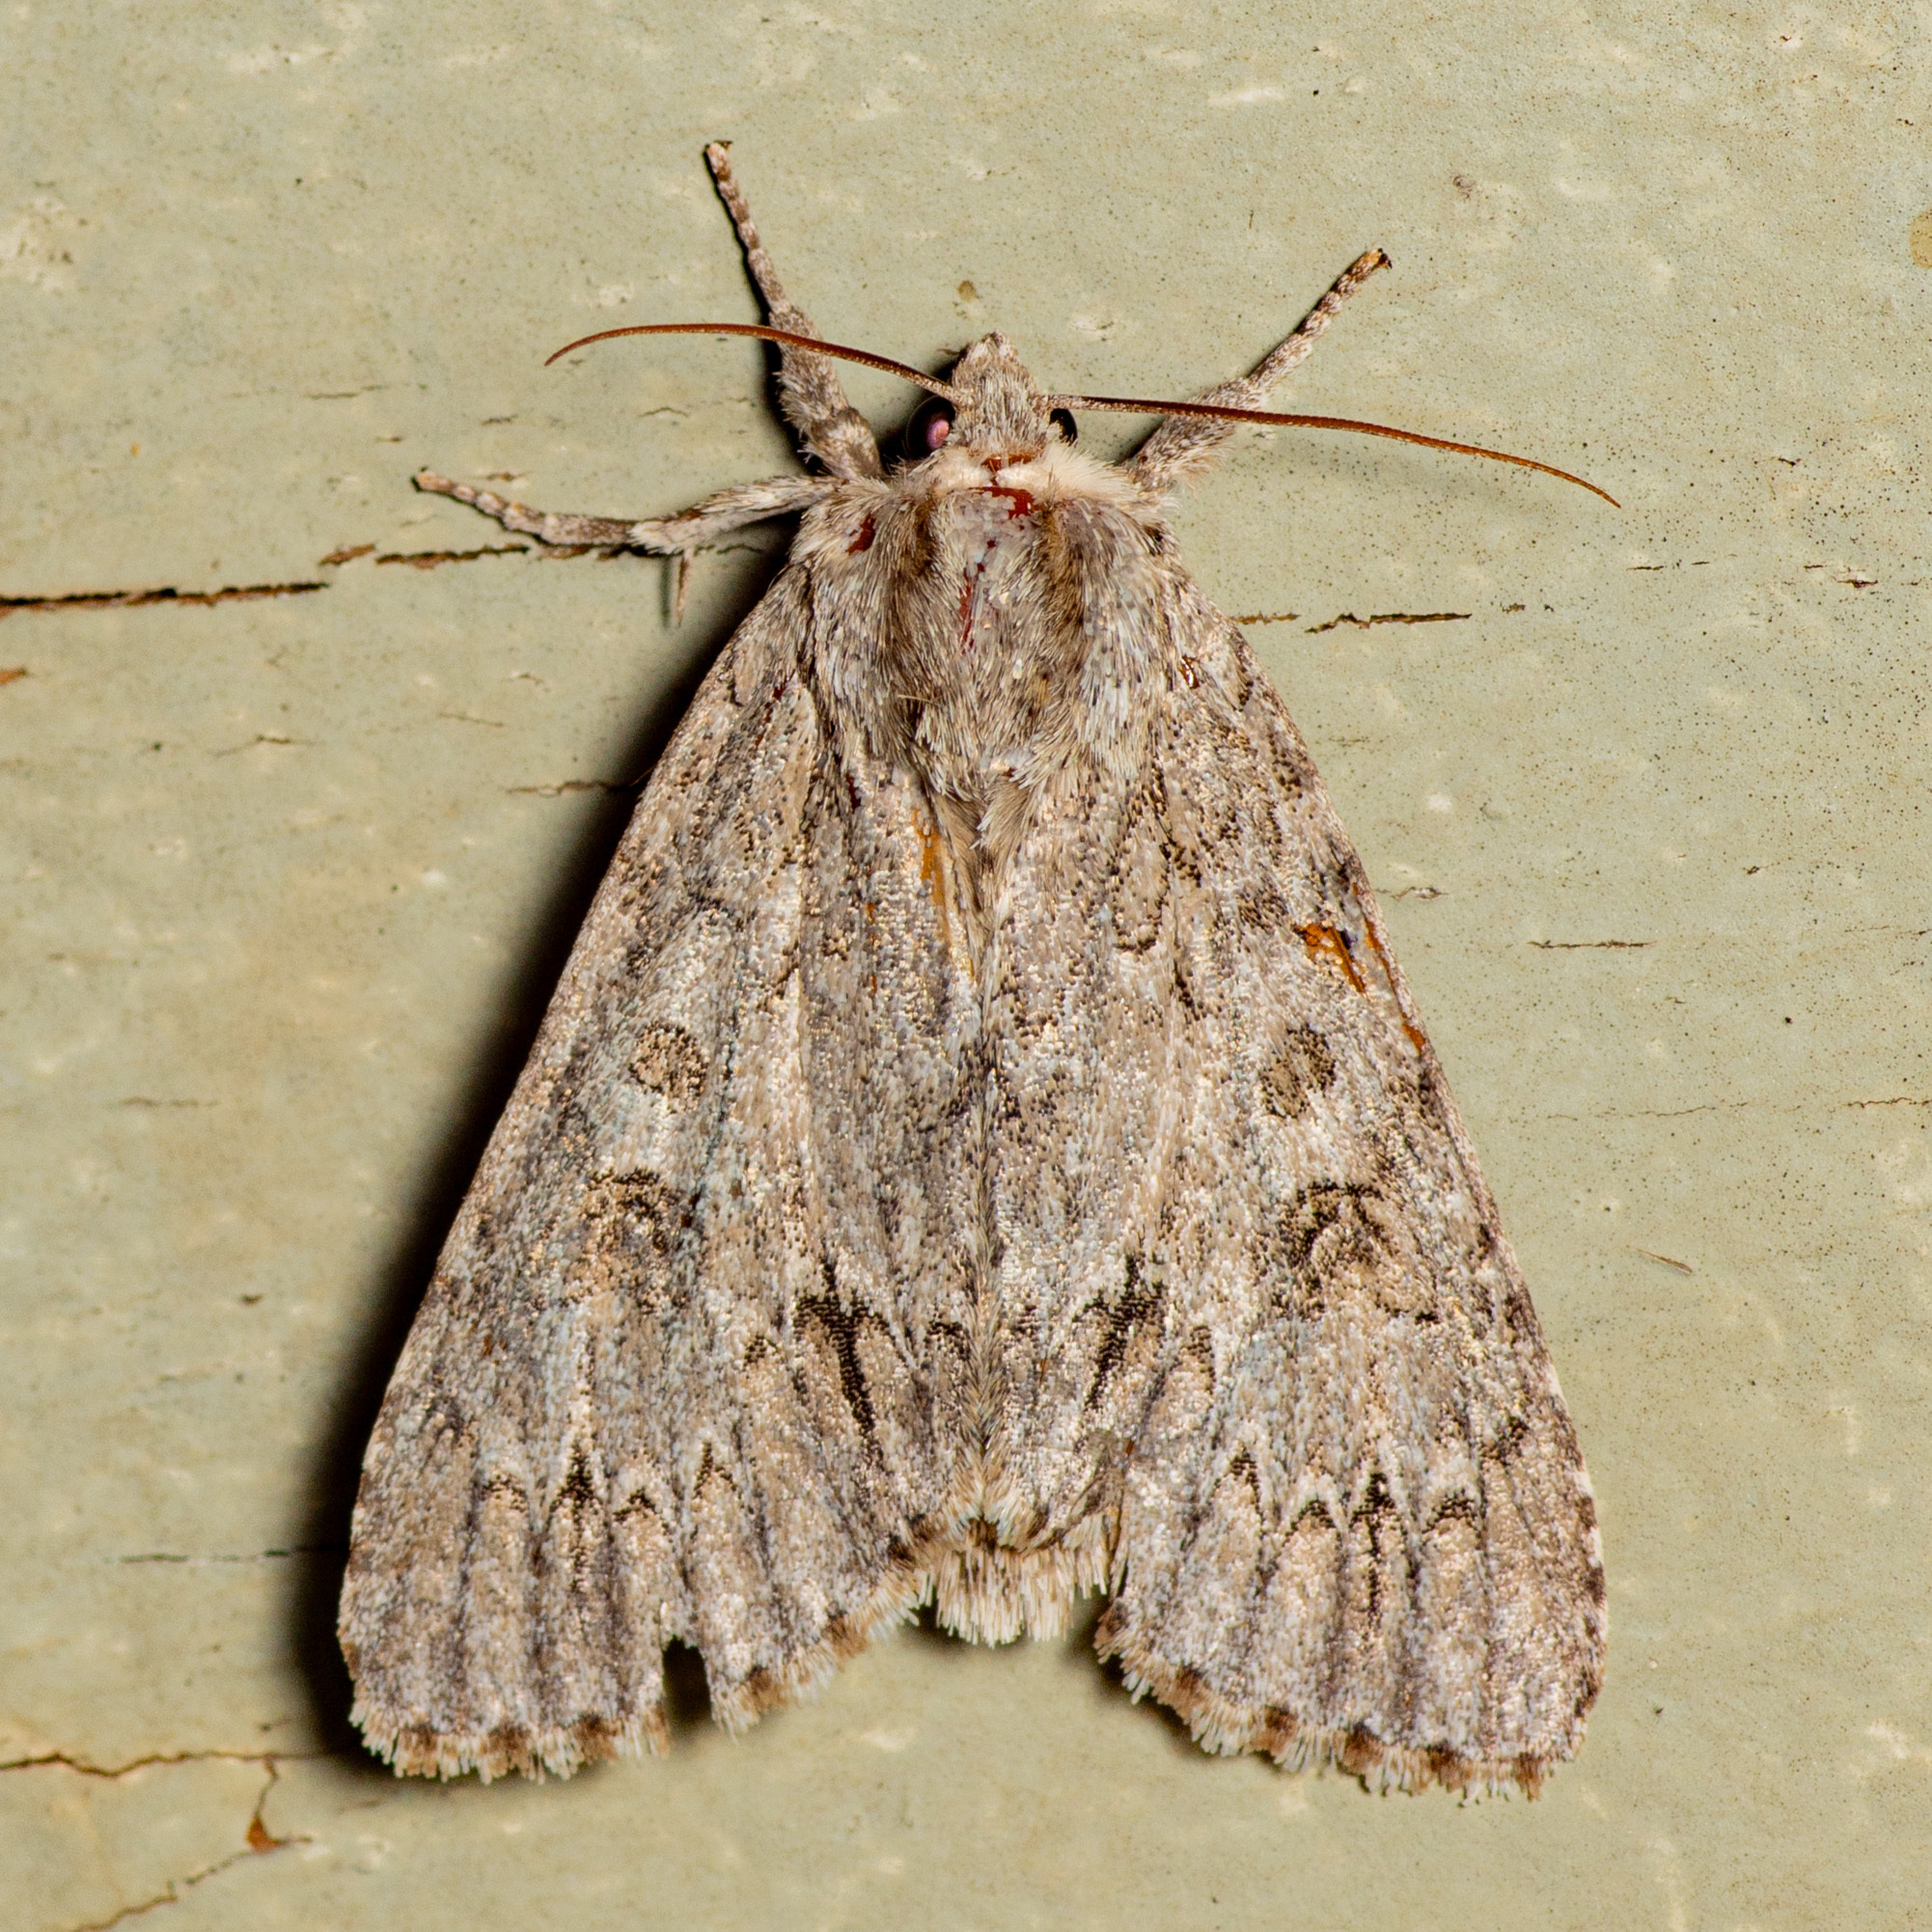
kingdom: Animalia
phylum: Arthropoda
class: Insecta
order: Lepidoptera
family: Noctuidae
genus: Acronicta
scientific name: Acronicta americana
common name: American dagger
